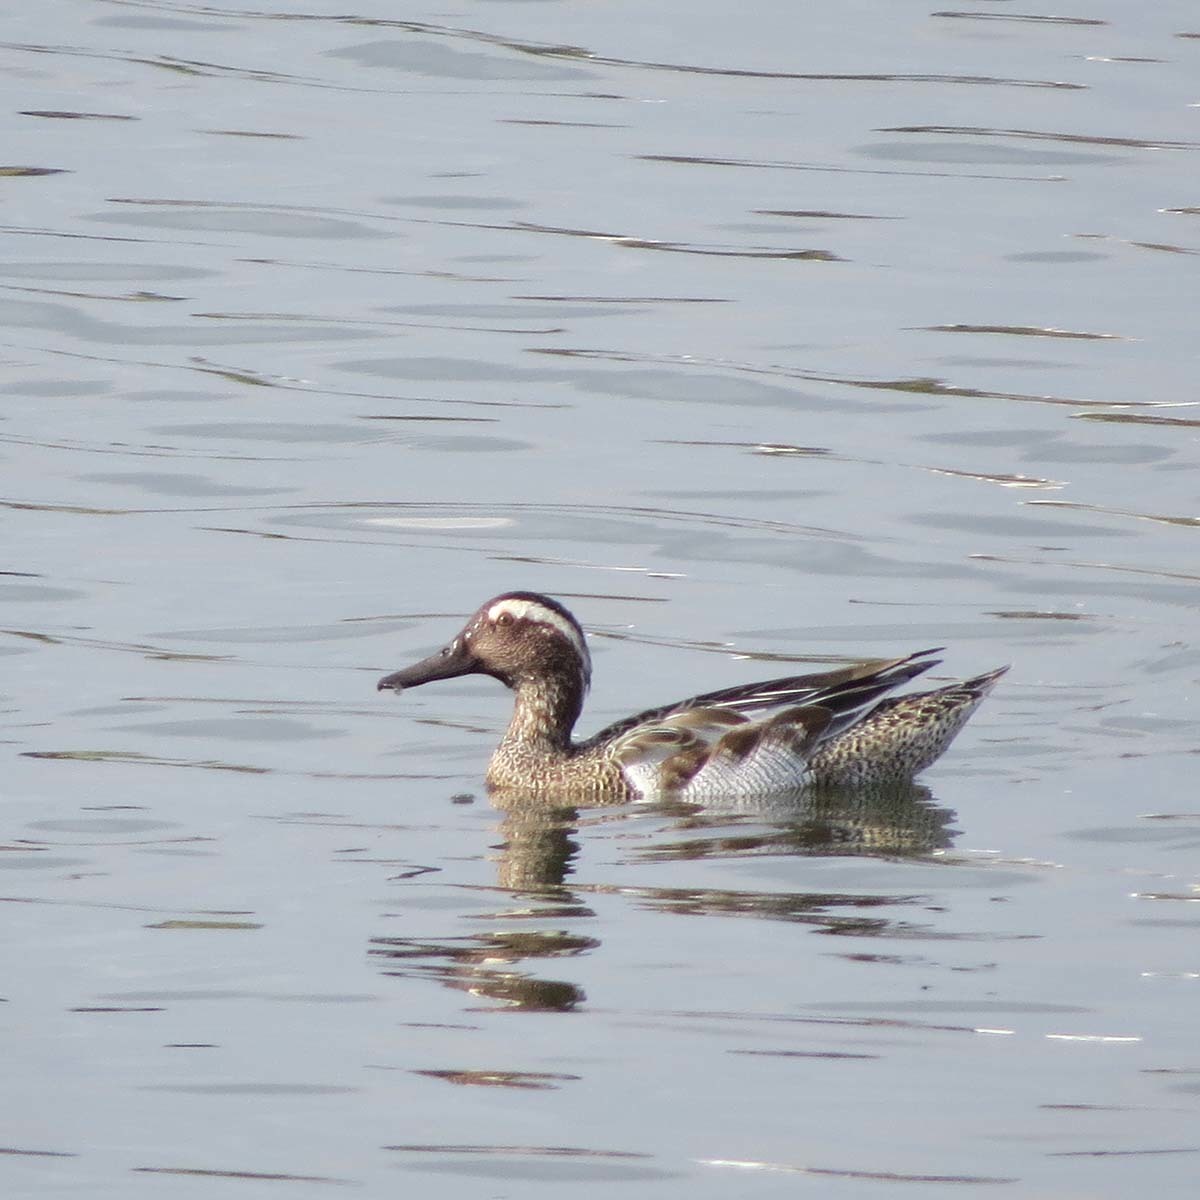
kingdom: Animalia
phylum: Chordata
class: Aves
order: Anseriformes
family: Anatidae
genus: Spatula
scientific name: Spatula querquedula
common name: Garganey
